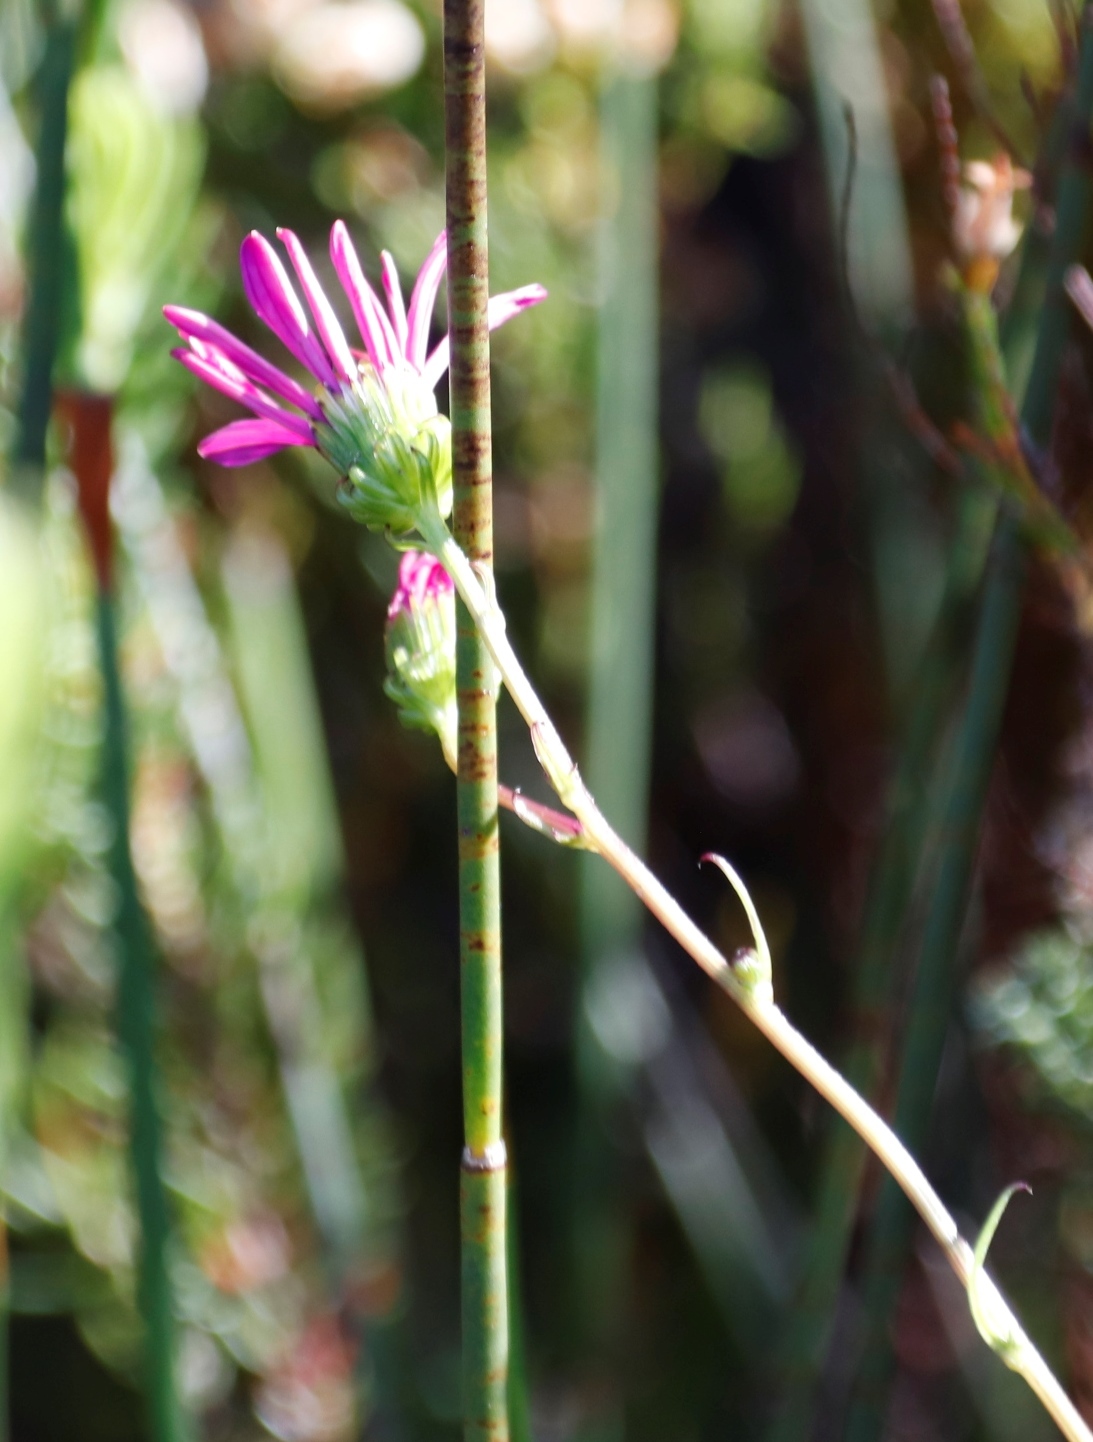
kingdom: Plantae
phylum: Tracheophyta
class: Magnoliopsida
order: Asterales
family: Asteraceae
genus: Senecio
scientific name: Senecio umbellatus
